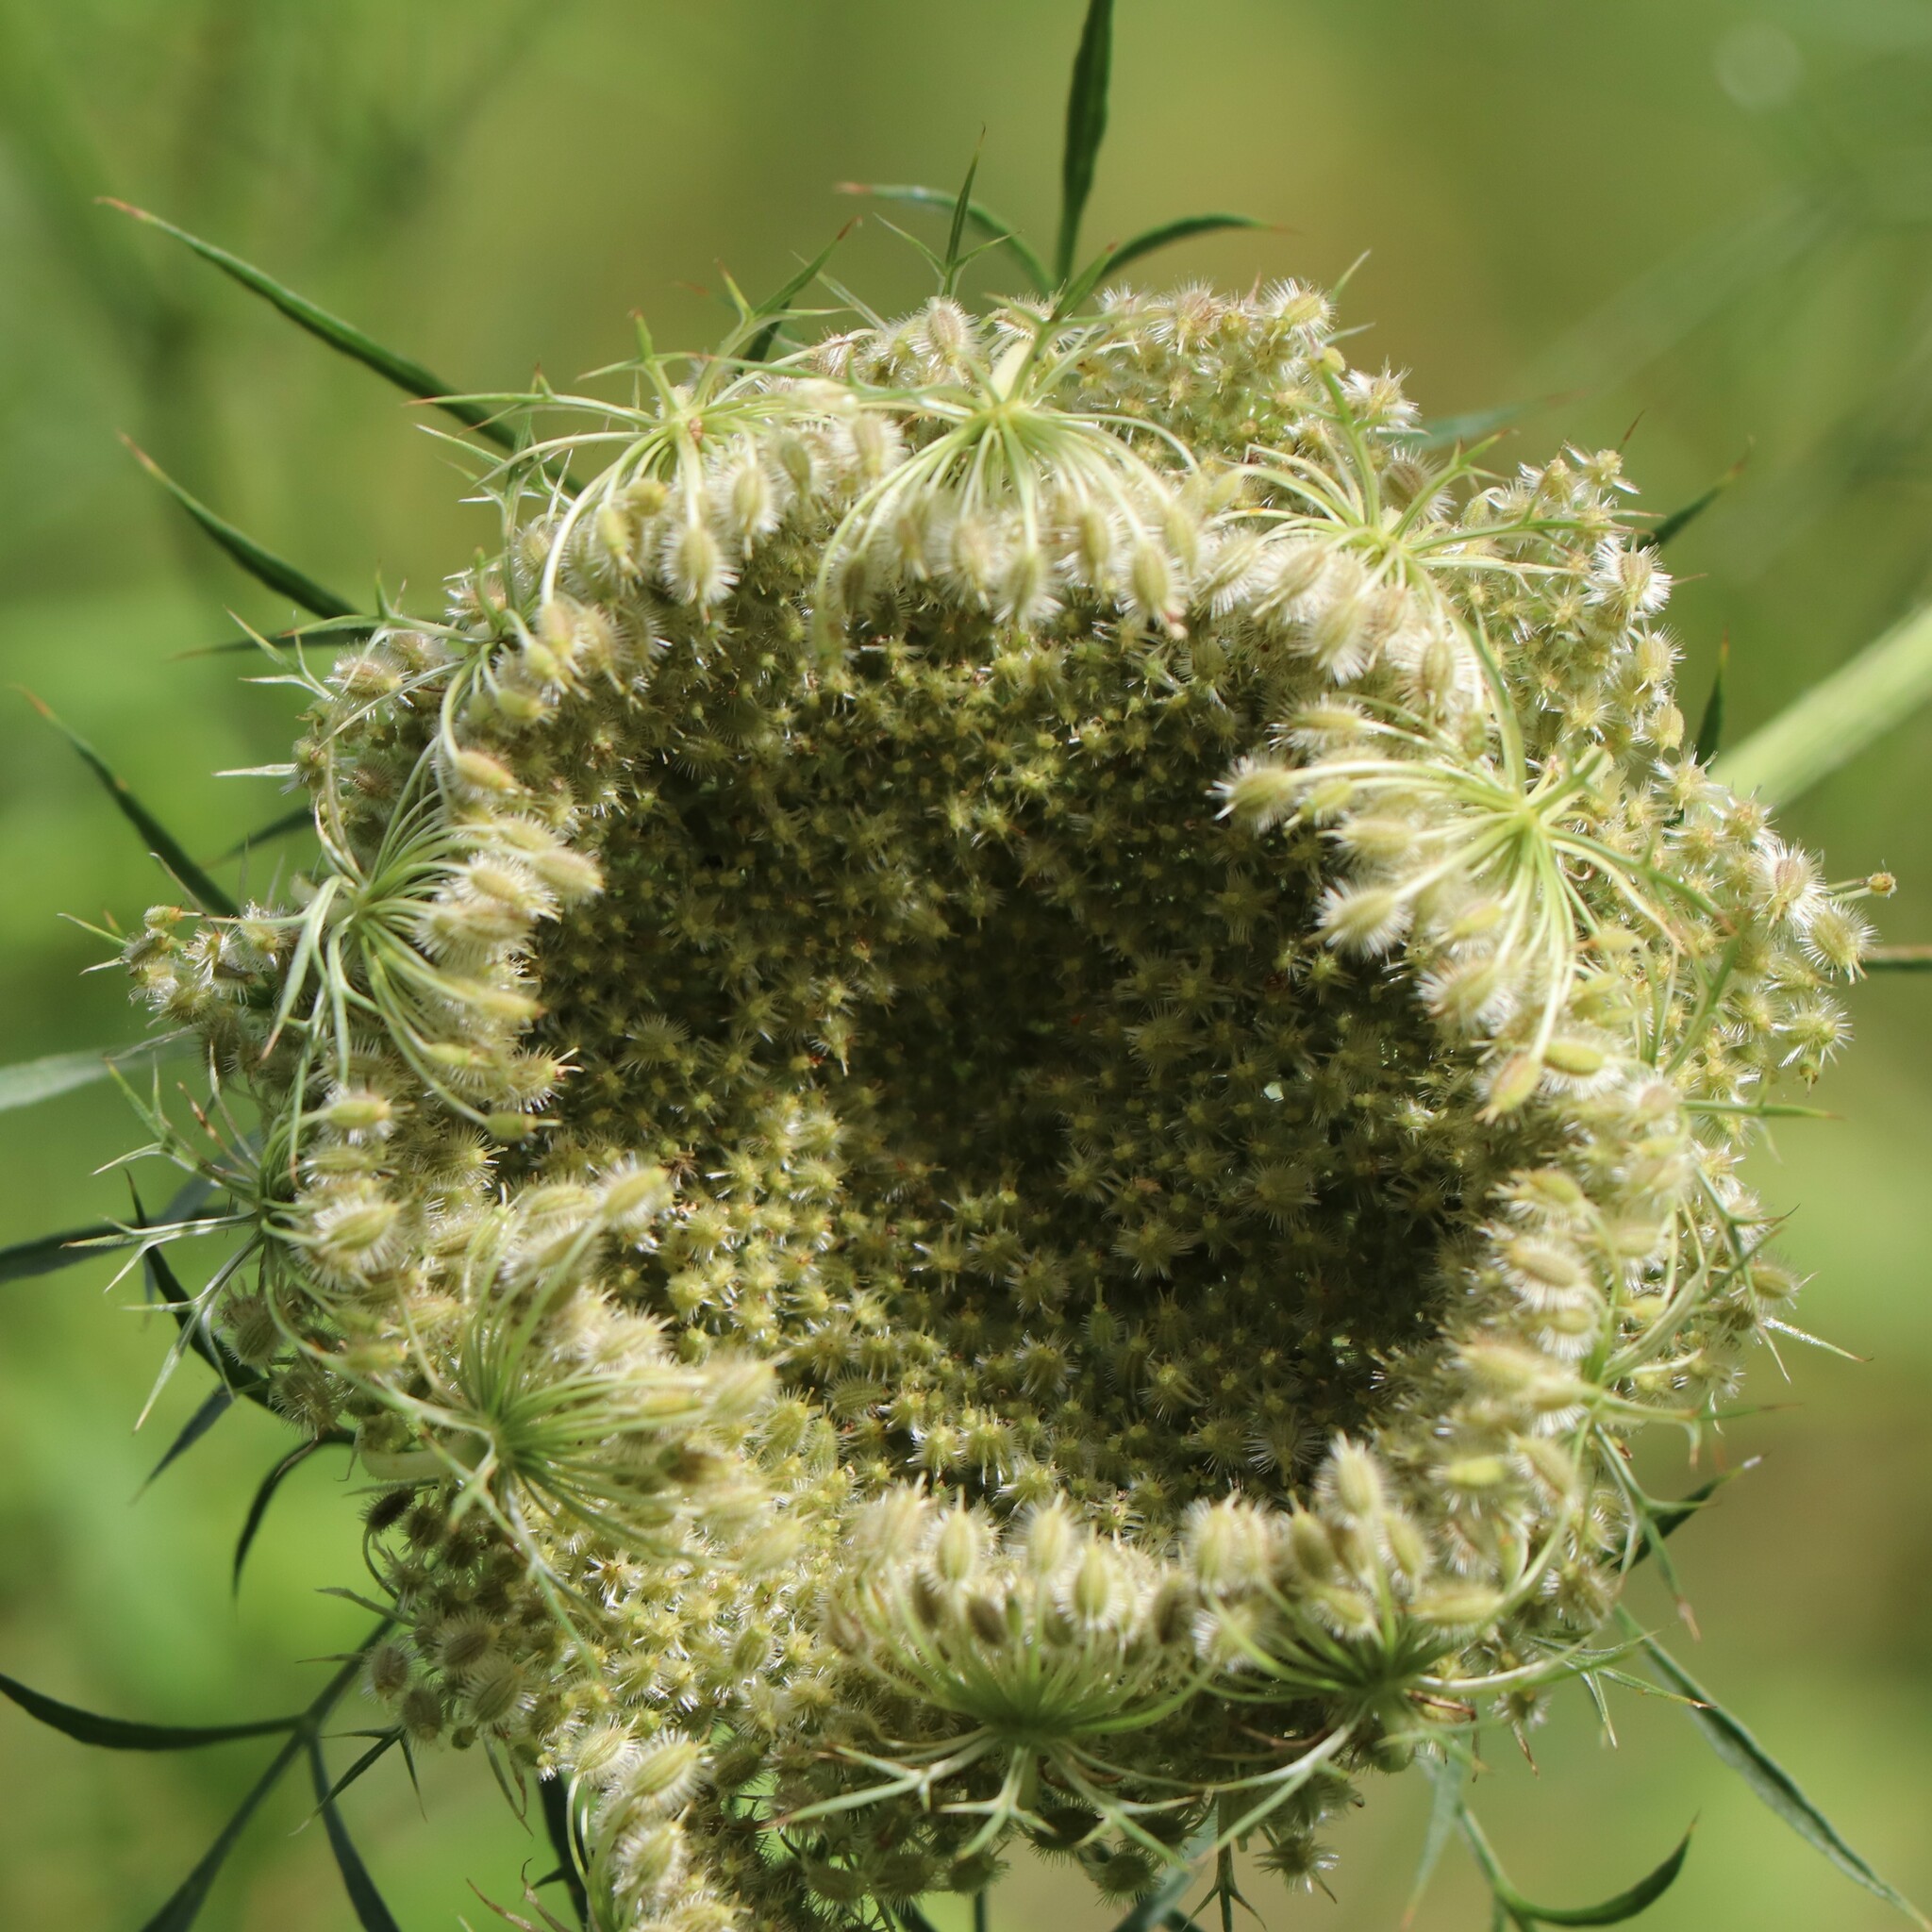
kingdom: Plantae
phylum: Tracheophyta
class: Magnoliopsida
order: Apiales
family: Apiaceae
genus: Daucus
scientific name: Daucus carota
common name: Wild carrot
